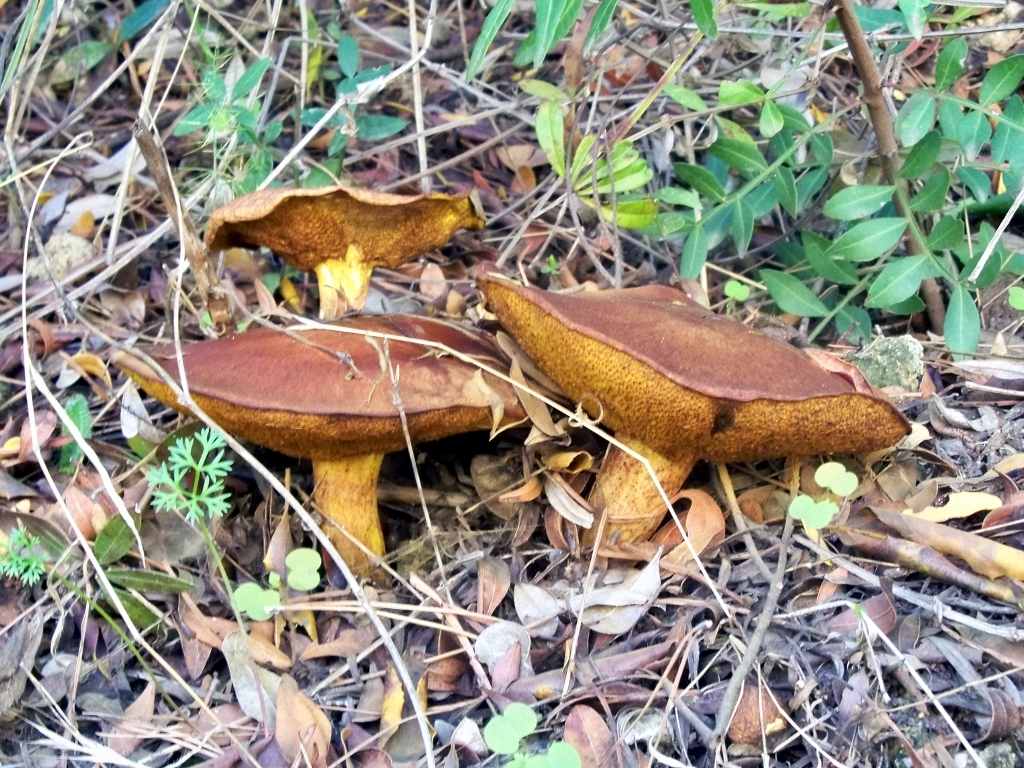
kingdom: Fungi
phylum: Basidiomycota
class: Agaricomycetes
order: Boletales
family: Suillaceae
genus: Suillus
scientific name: Suillus mediterraneensis
